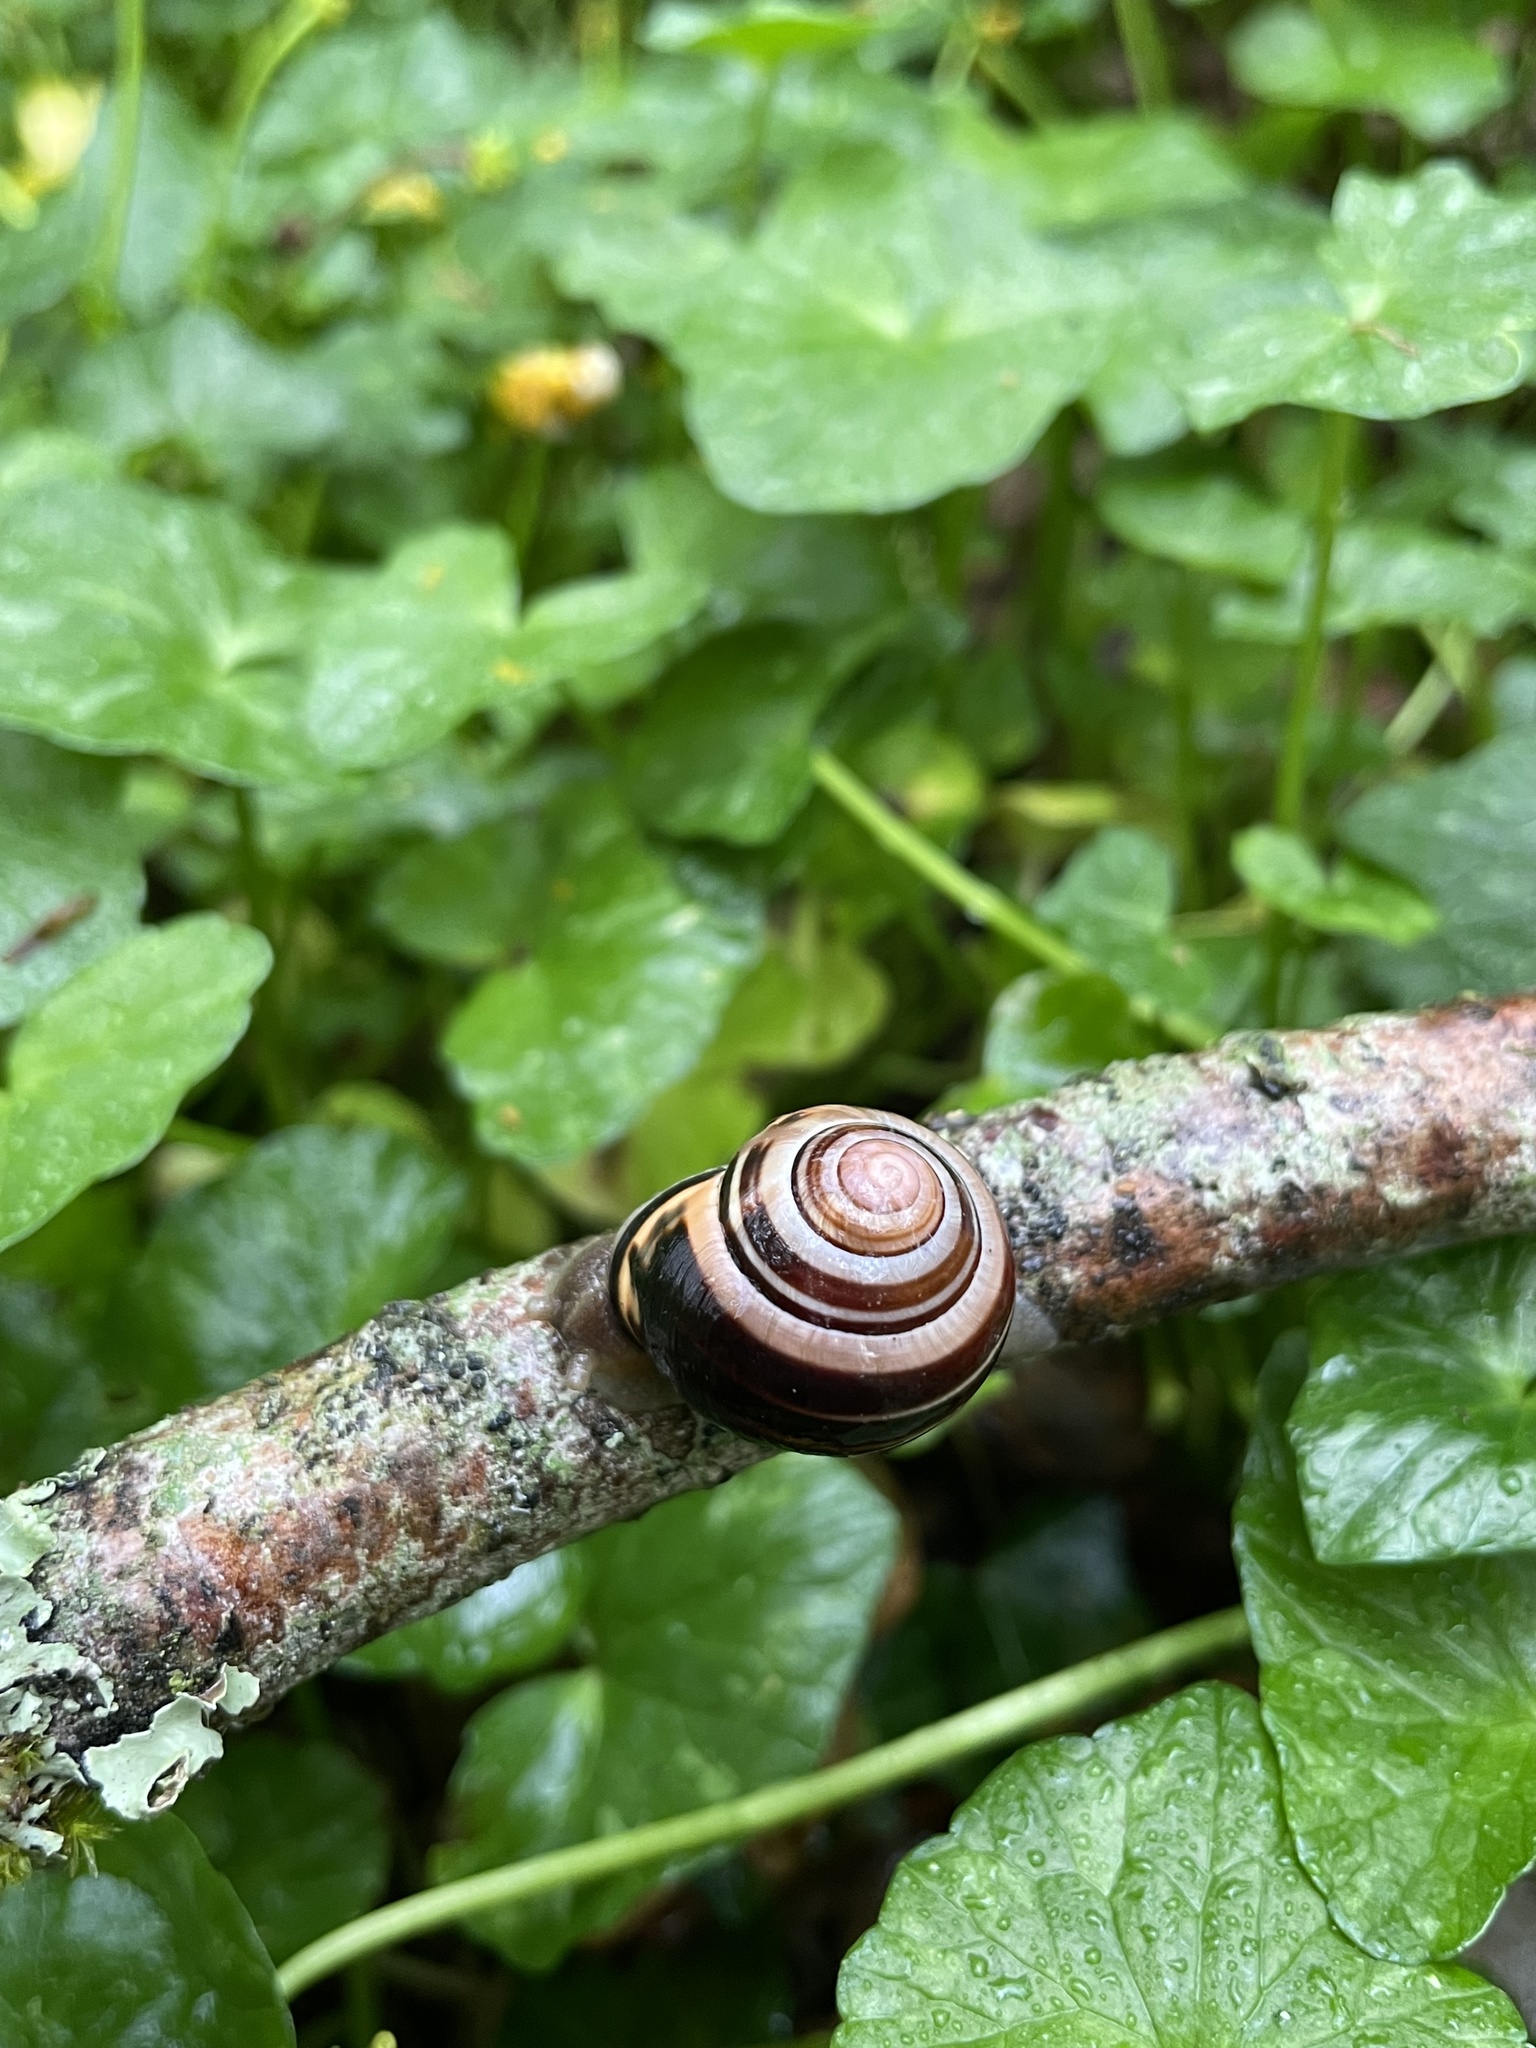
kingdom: Animalia
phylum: Mollusca
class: Gastropoda
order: Stylommatophora
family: Helicidae
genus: Cepaea
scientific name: Cepaea nemoralis
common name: Grovesnail
